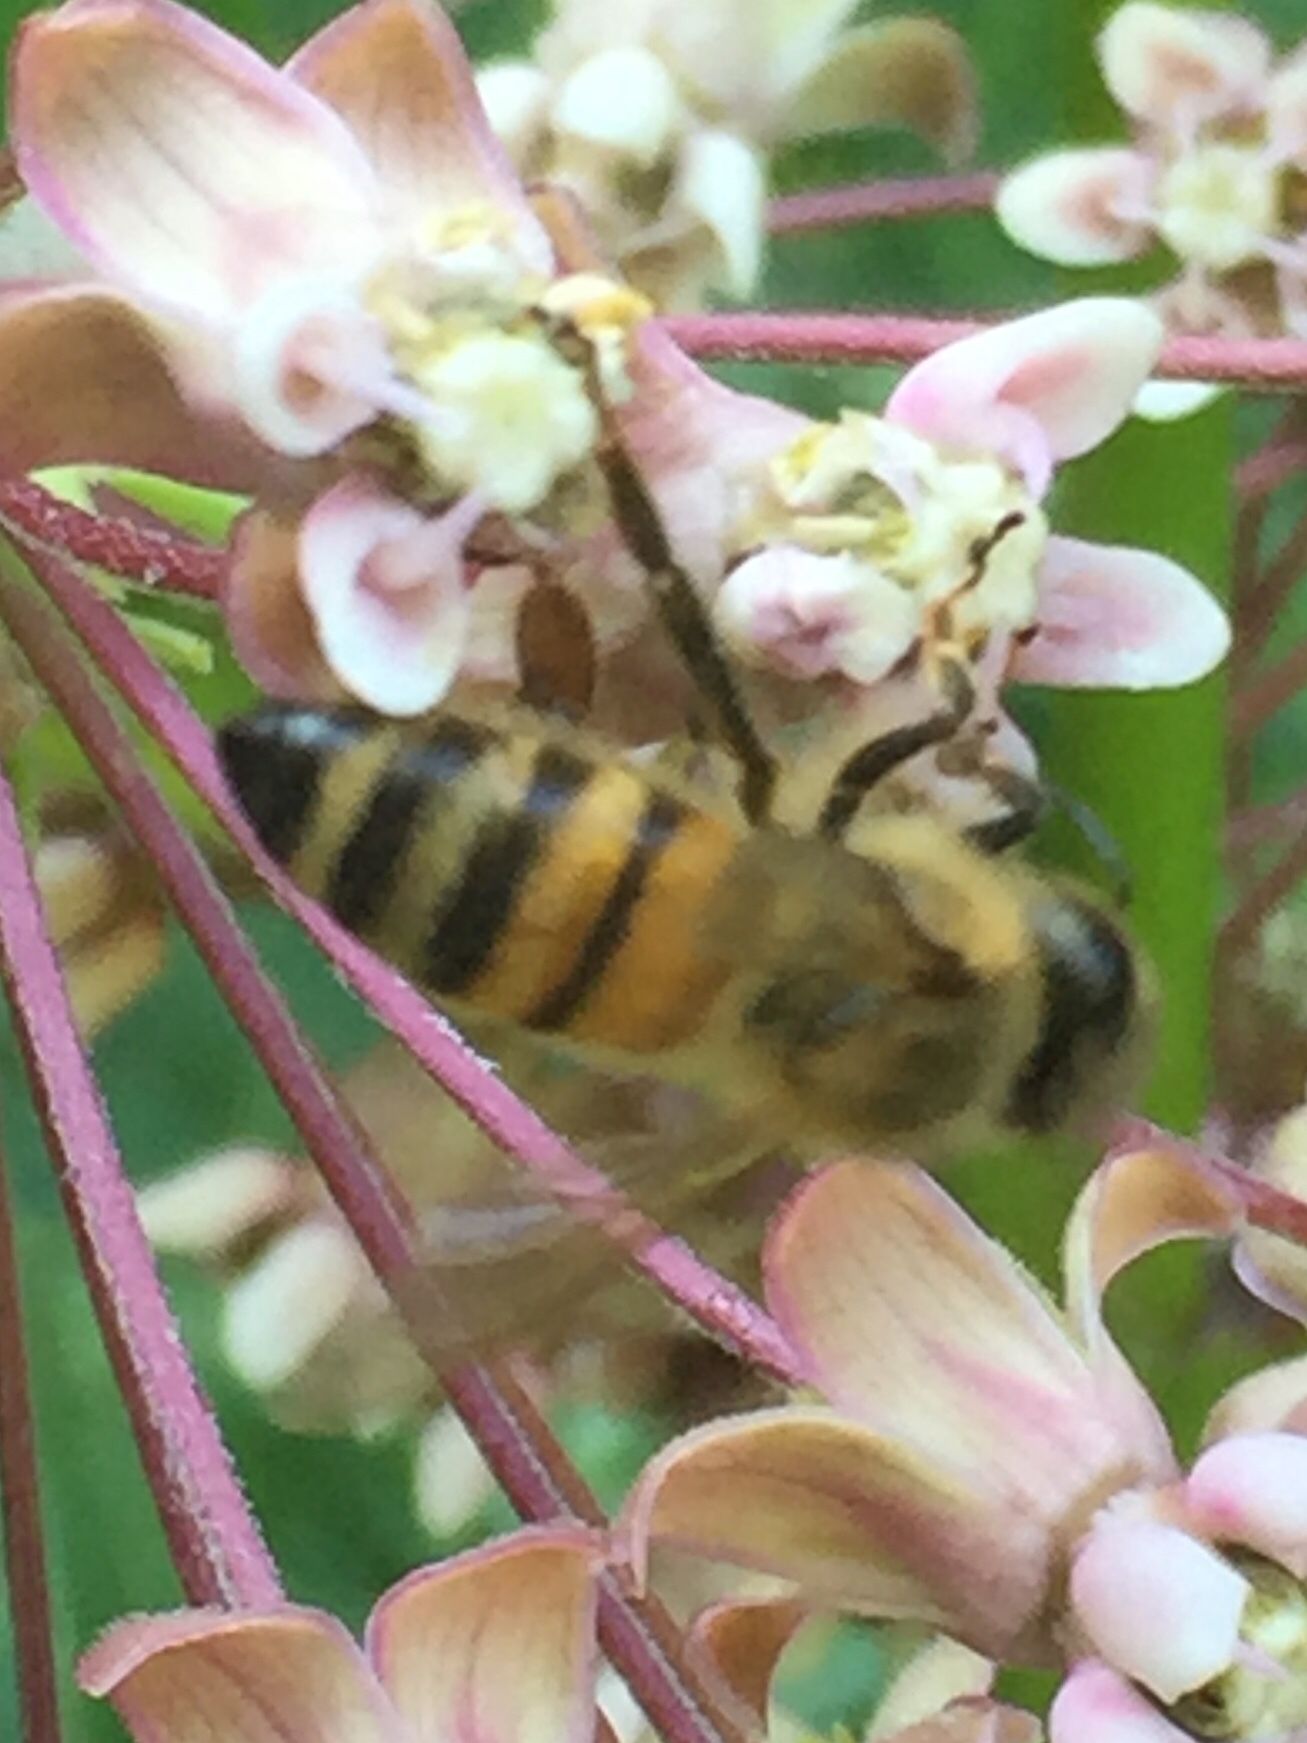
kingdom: Animalia
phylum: Arthropoda
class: Insecta
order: Hymenoptera
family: Apidae
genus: Apis
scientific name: Apis mellifera
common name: Honey bee
